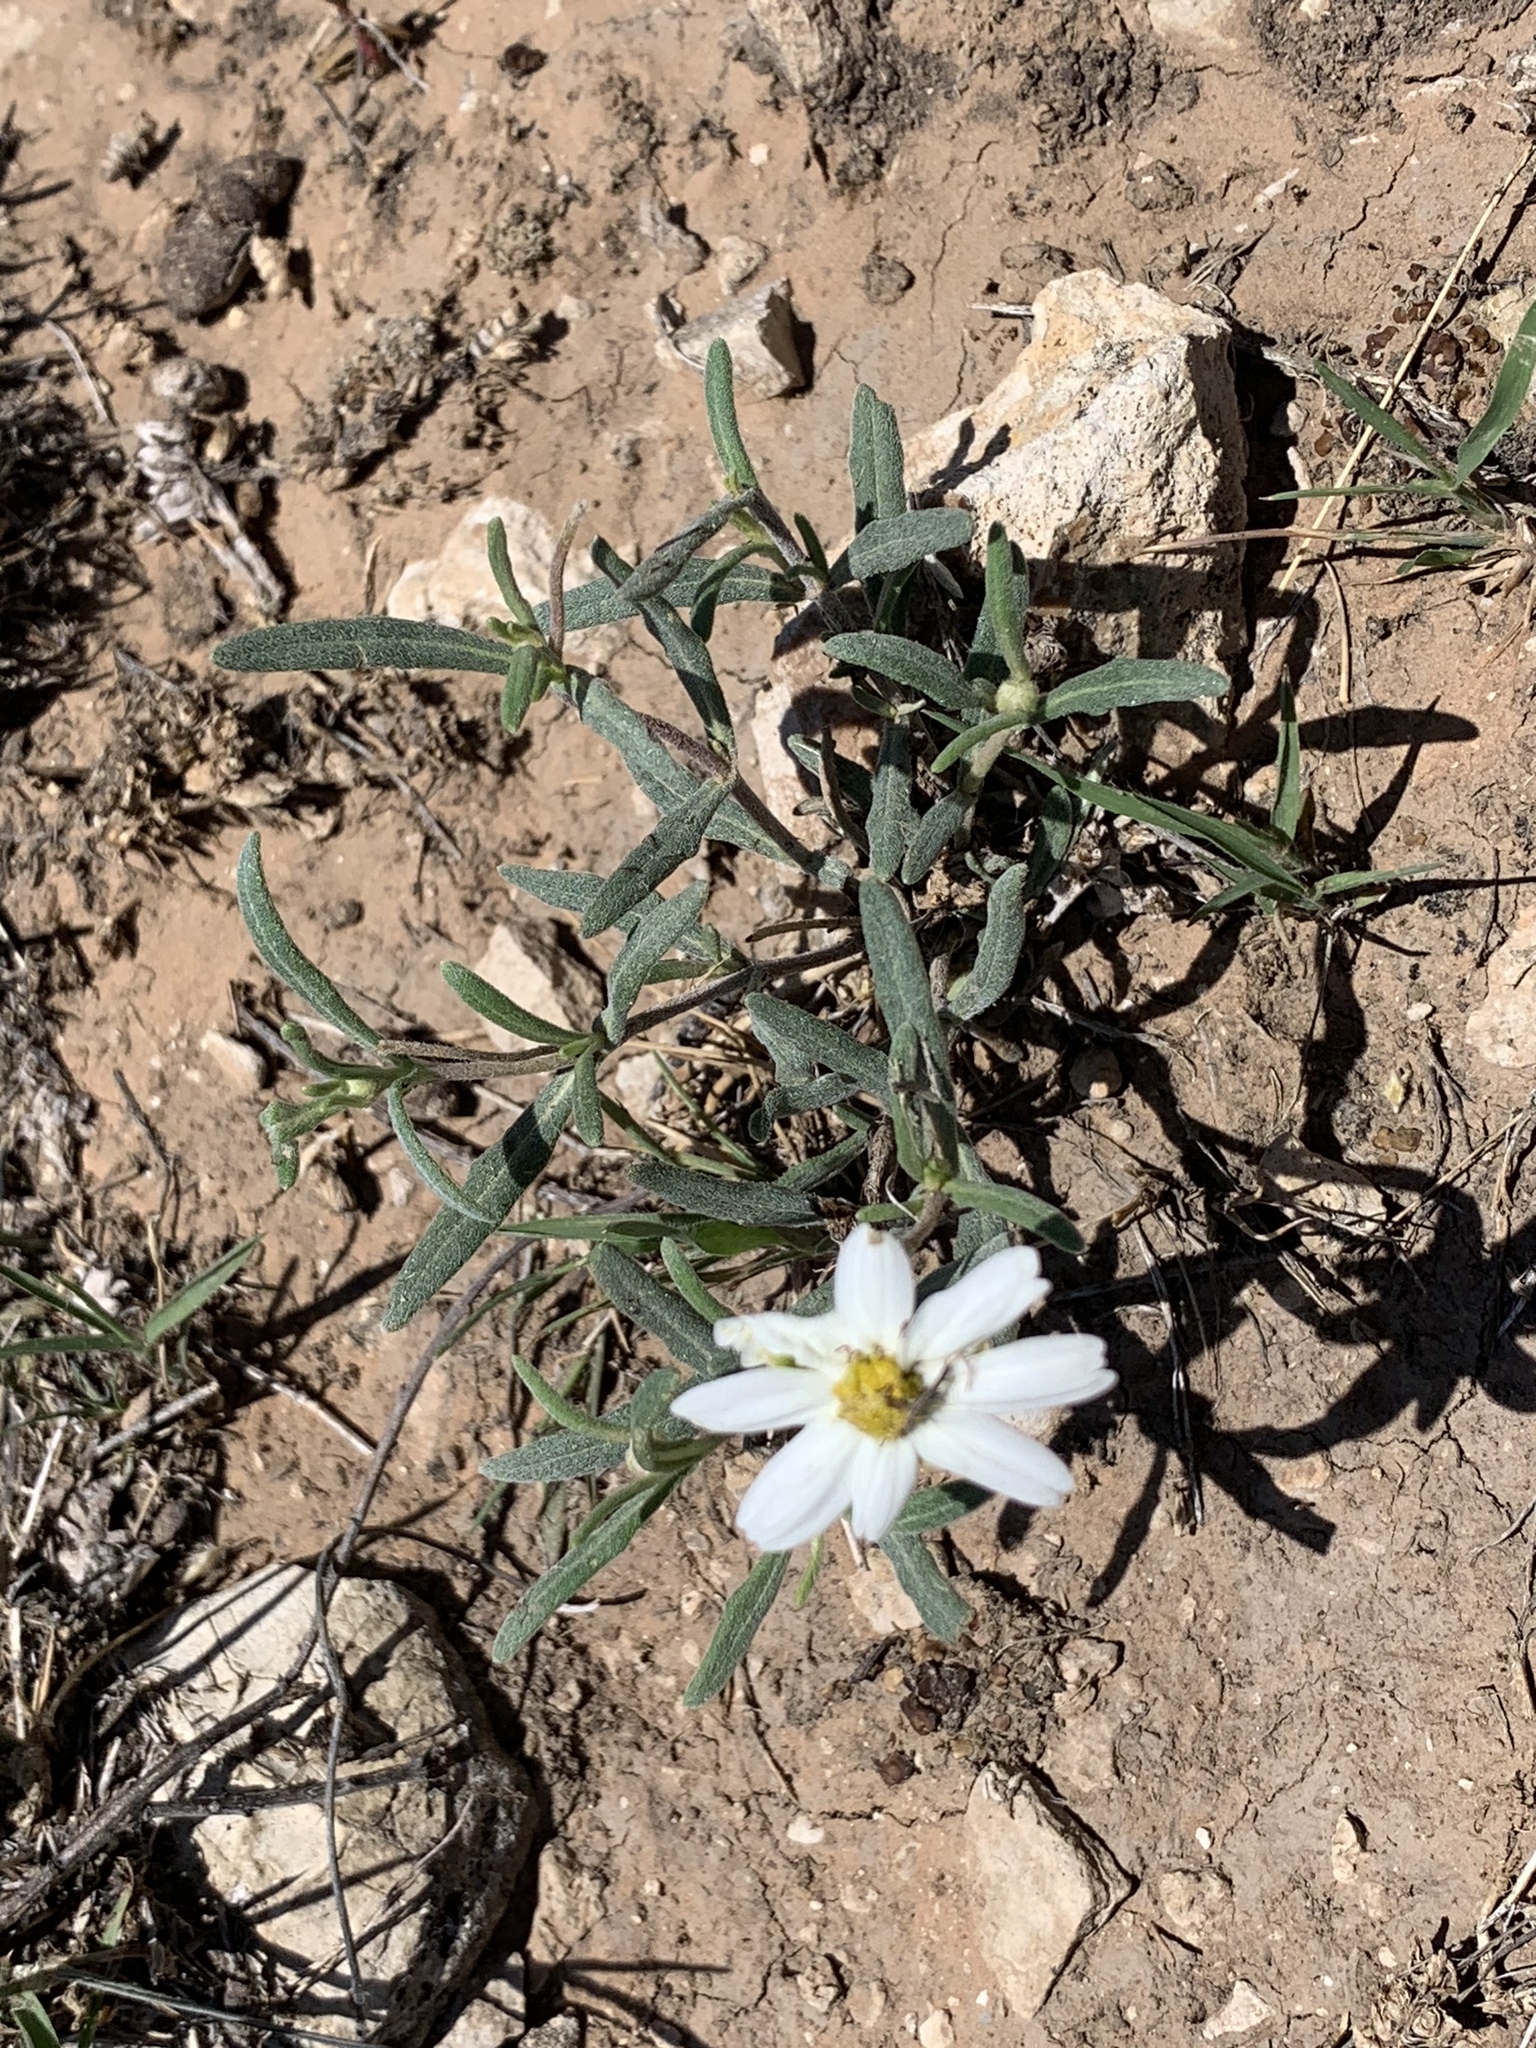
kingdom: Plantae
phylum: Tracheophyta
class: Magnoliopsida
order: Asterales
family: Asteraceae
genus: Melampodium
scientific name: Melampodium leucanthum
